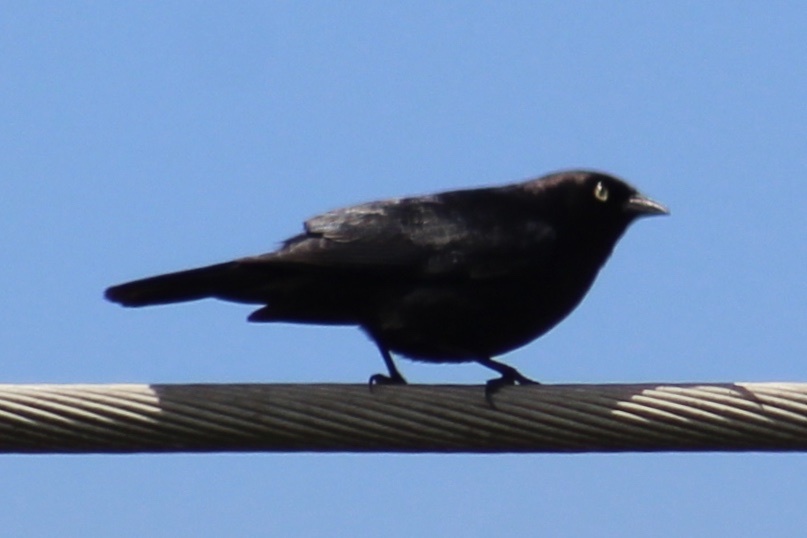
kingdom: Animalia
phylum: Chordata
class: Aves
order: Passeriformes
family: Icteridae
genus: Euphagus
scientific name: Euphagus cyanocephalus
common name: Brewer's blackbird
